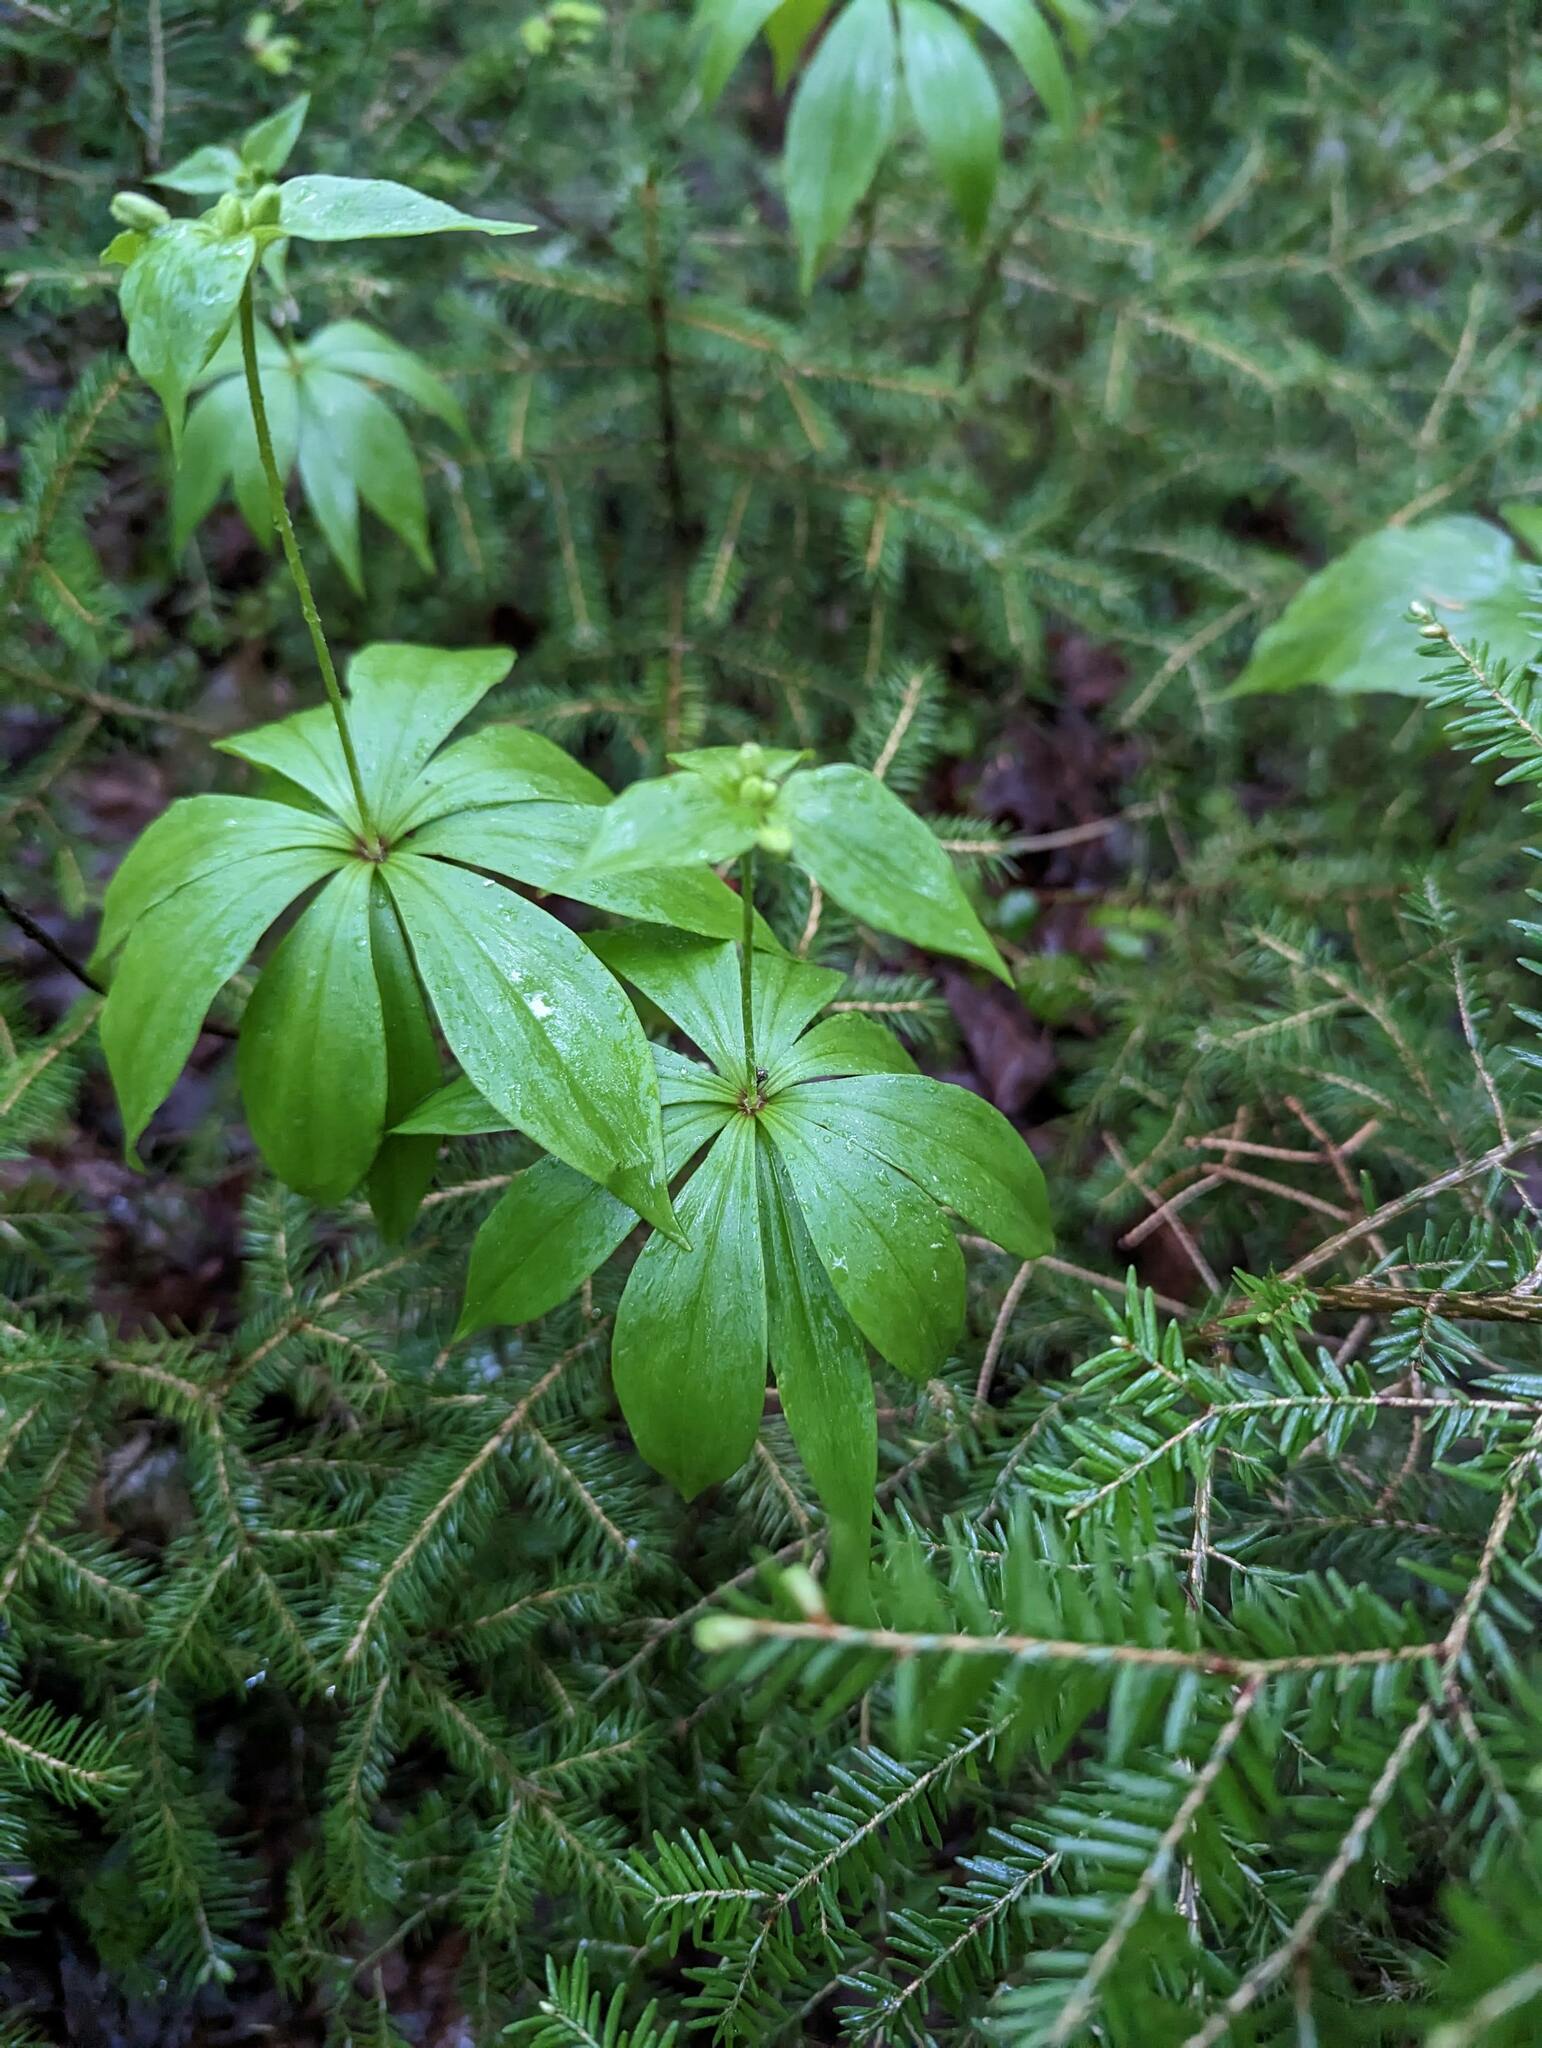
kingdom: Plantae
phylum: Tracheophyta
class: Liliopsida
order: Liliales
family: Liliaceae
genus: Medeola
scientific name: Medeola virginiana
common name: Indian cucumber-root
